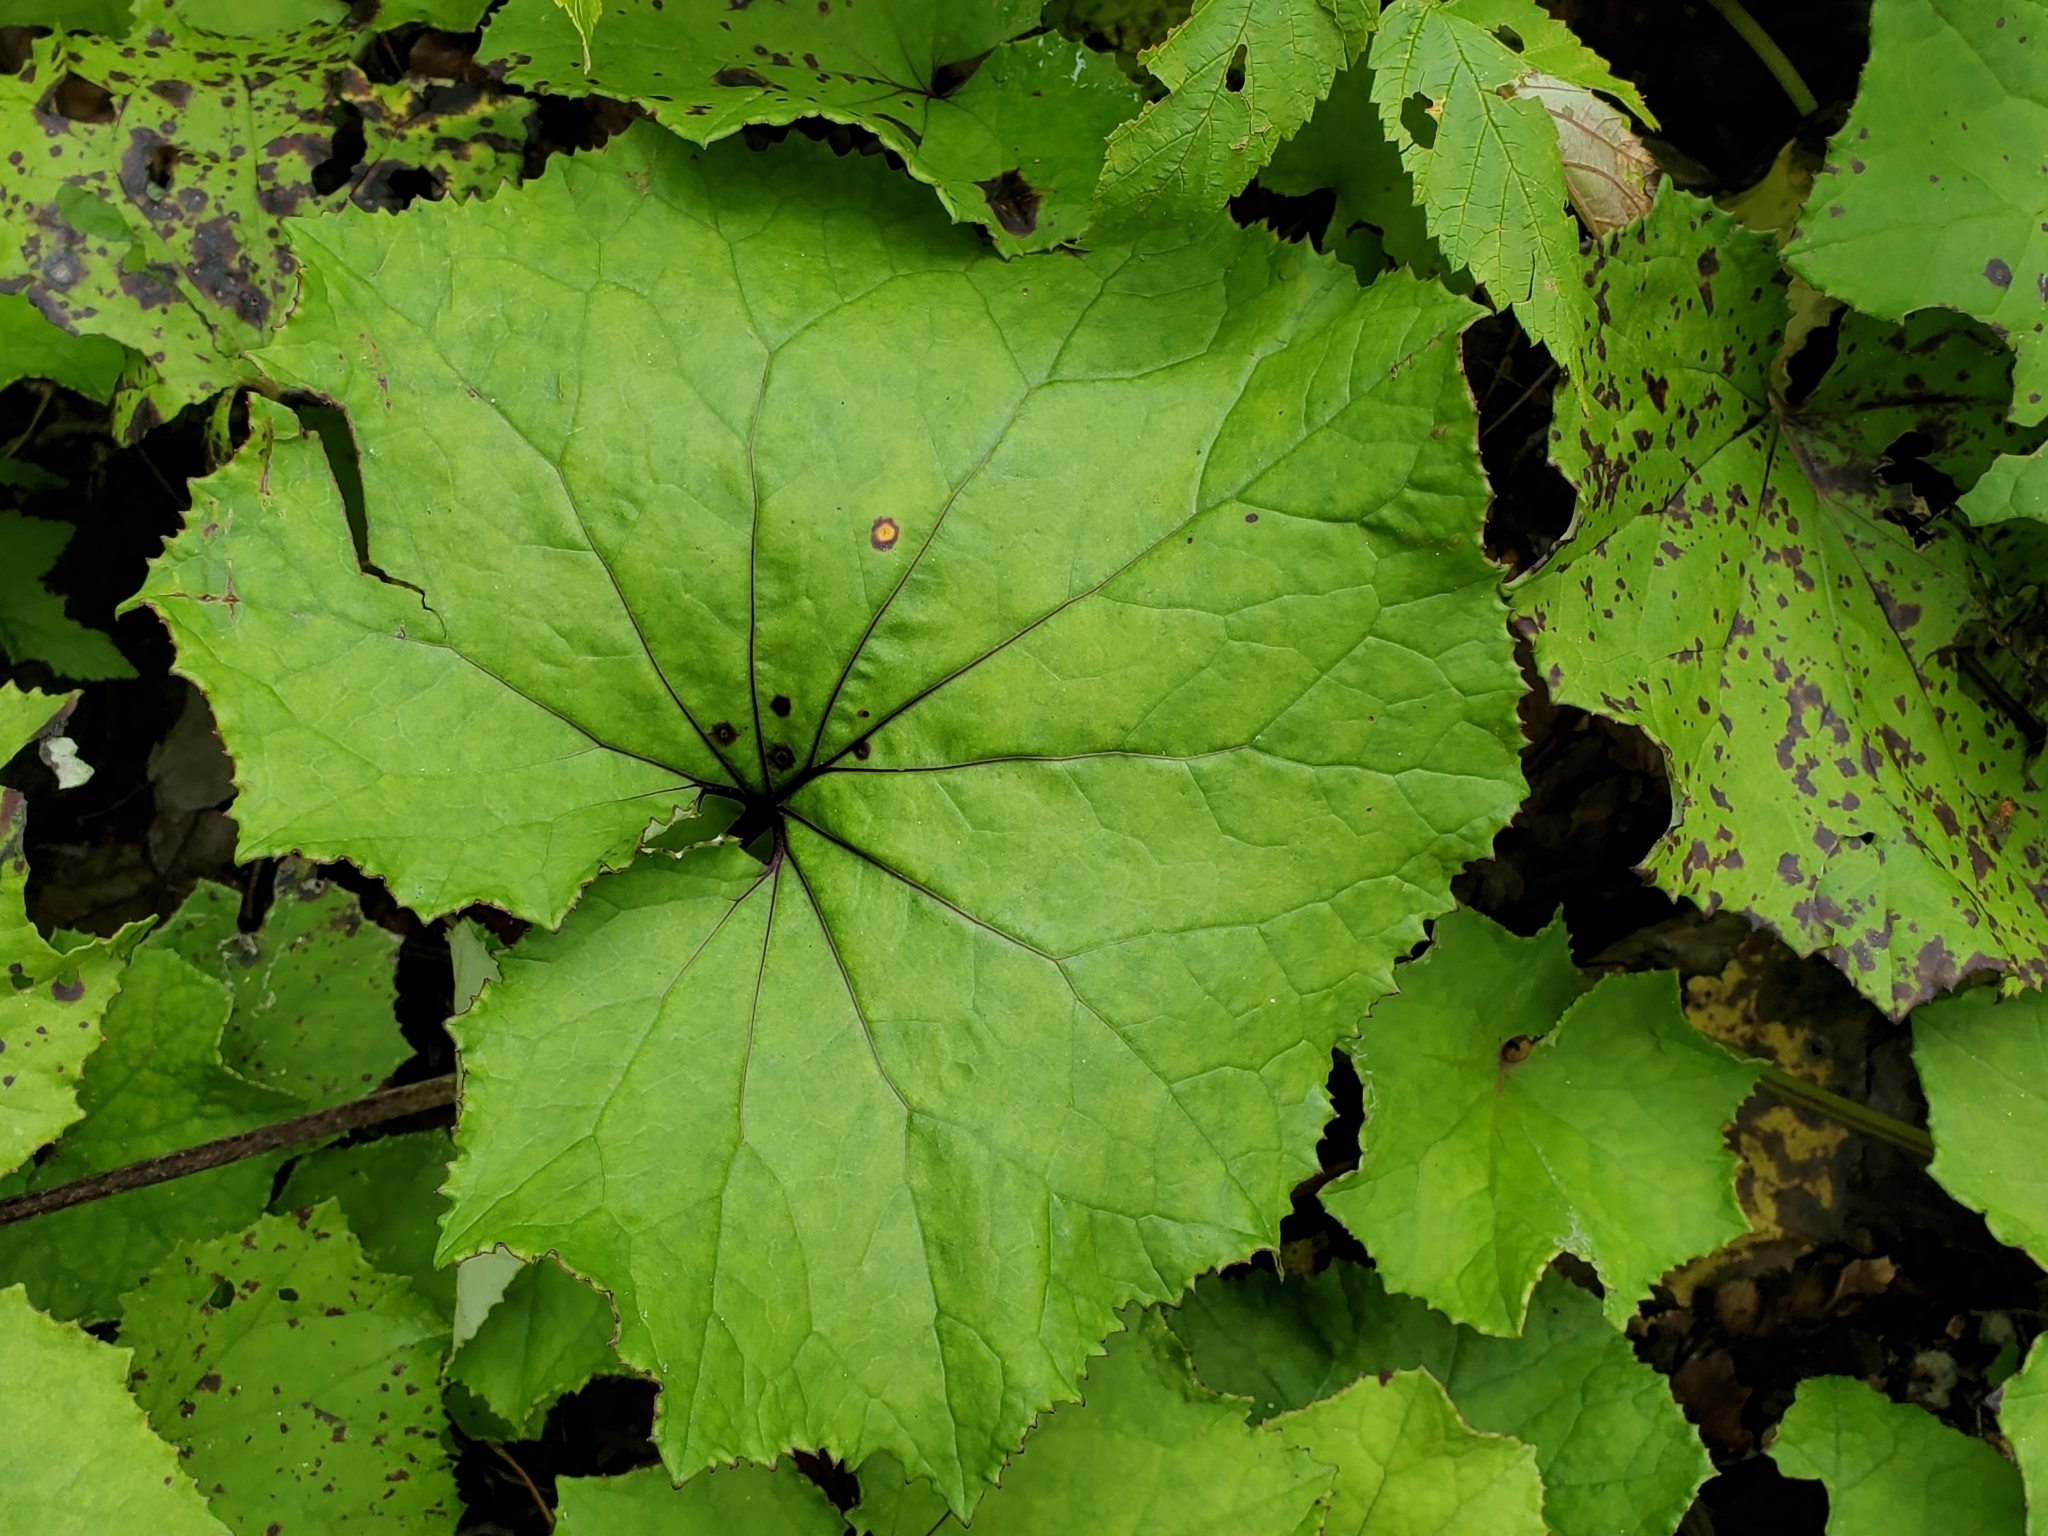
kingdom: Plantae
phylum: Tracheophyta
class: Magnoliopsida
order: Asterales
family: Asteraceae
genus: Tussilago
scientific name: Tussilago farfara
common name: Coltsfoot
